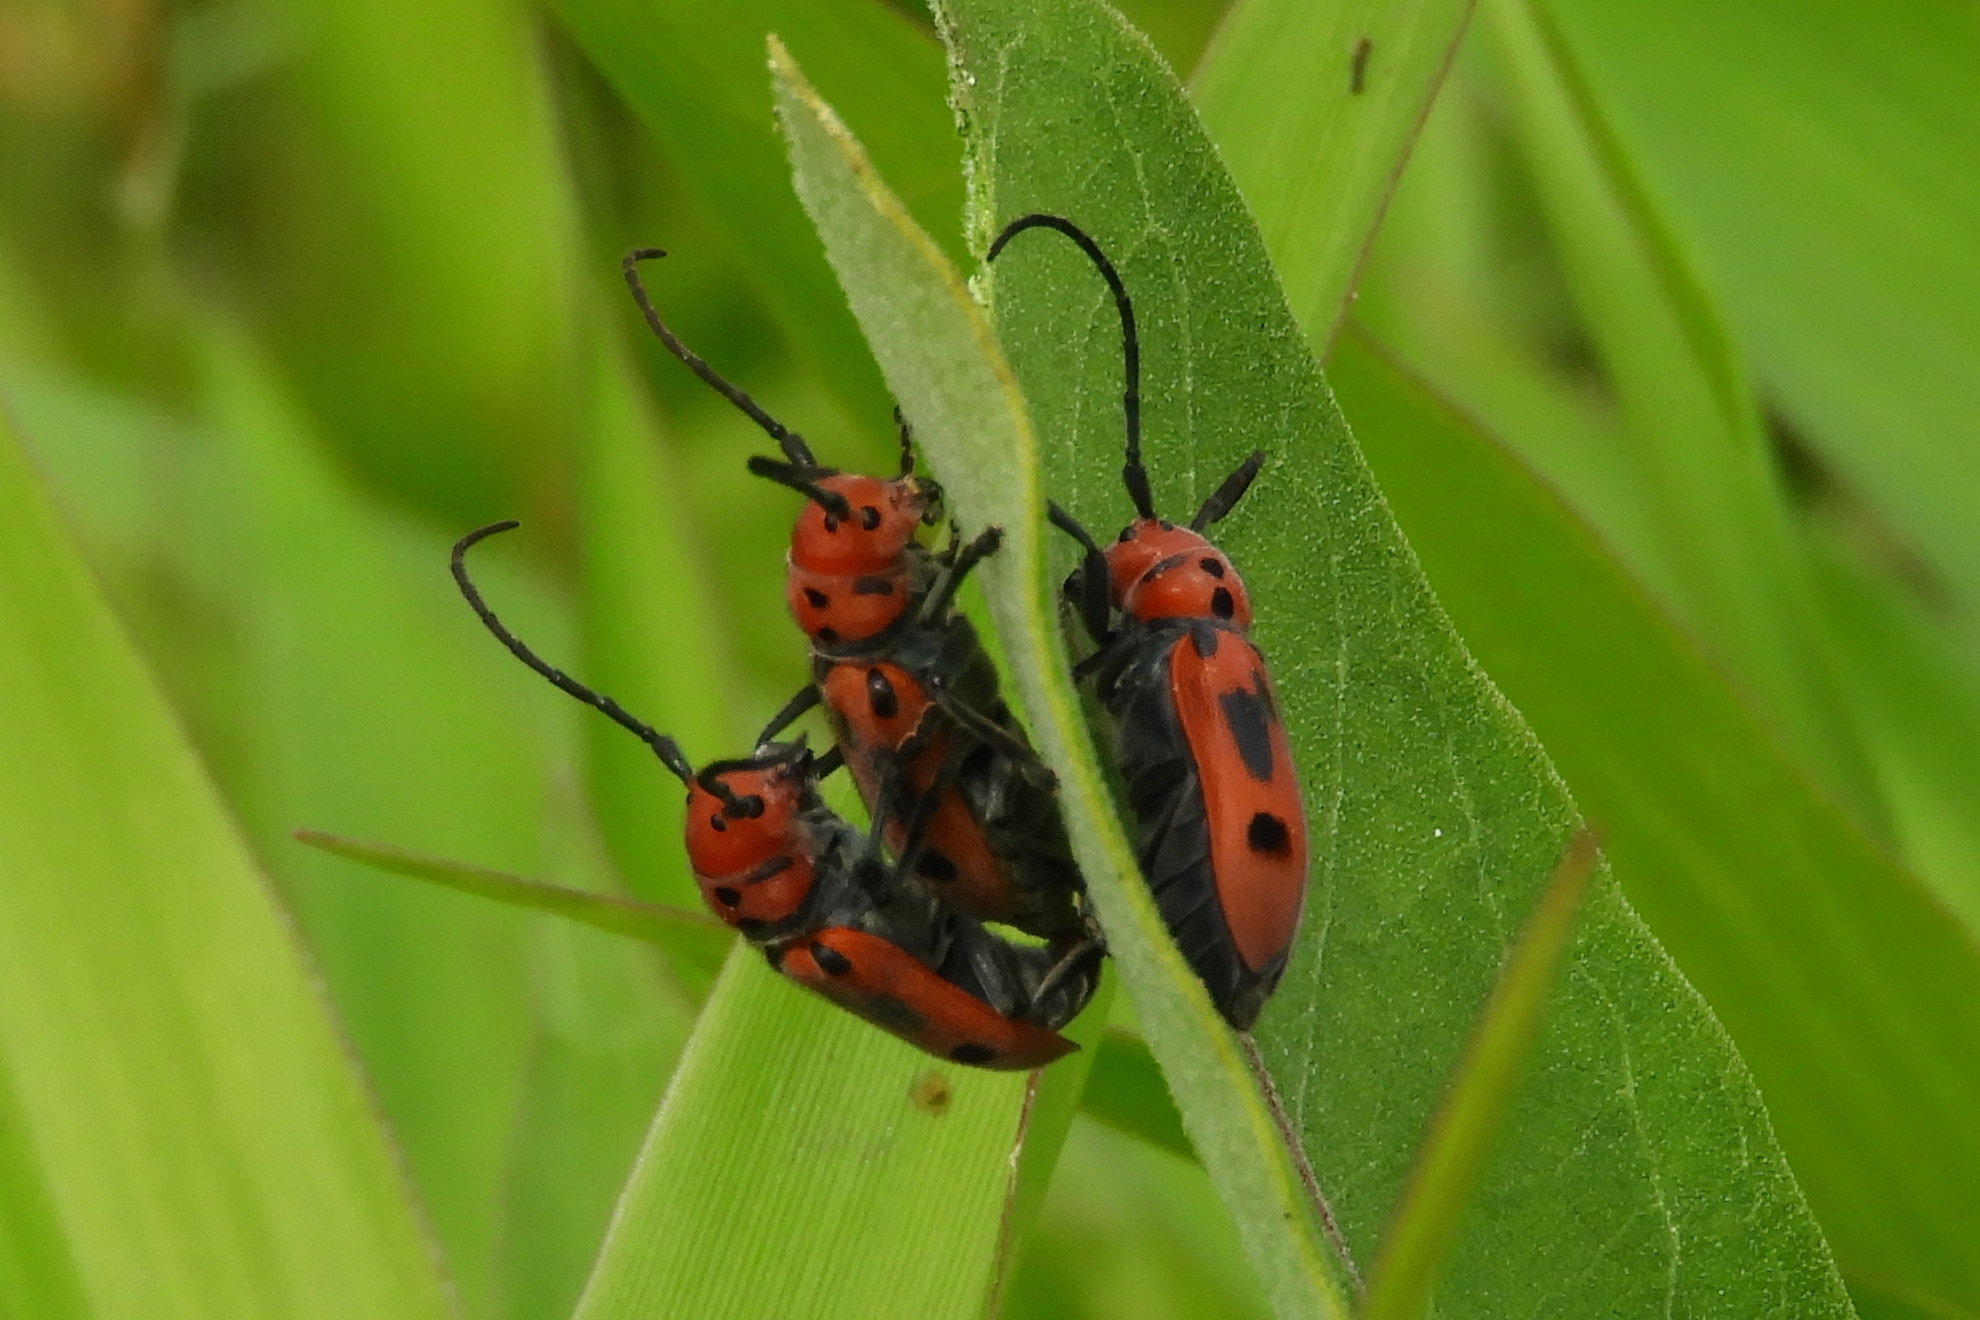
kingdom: Animalia
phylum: Arthropoda
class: Insecta
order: Coleoptera
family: Cerambycidae
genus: Tetraopes
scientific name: Tetraopes tetrophthalmus
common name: Red milkweed beetle
